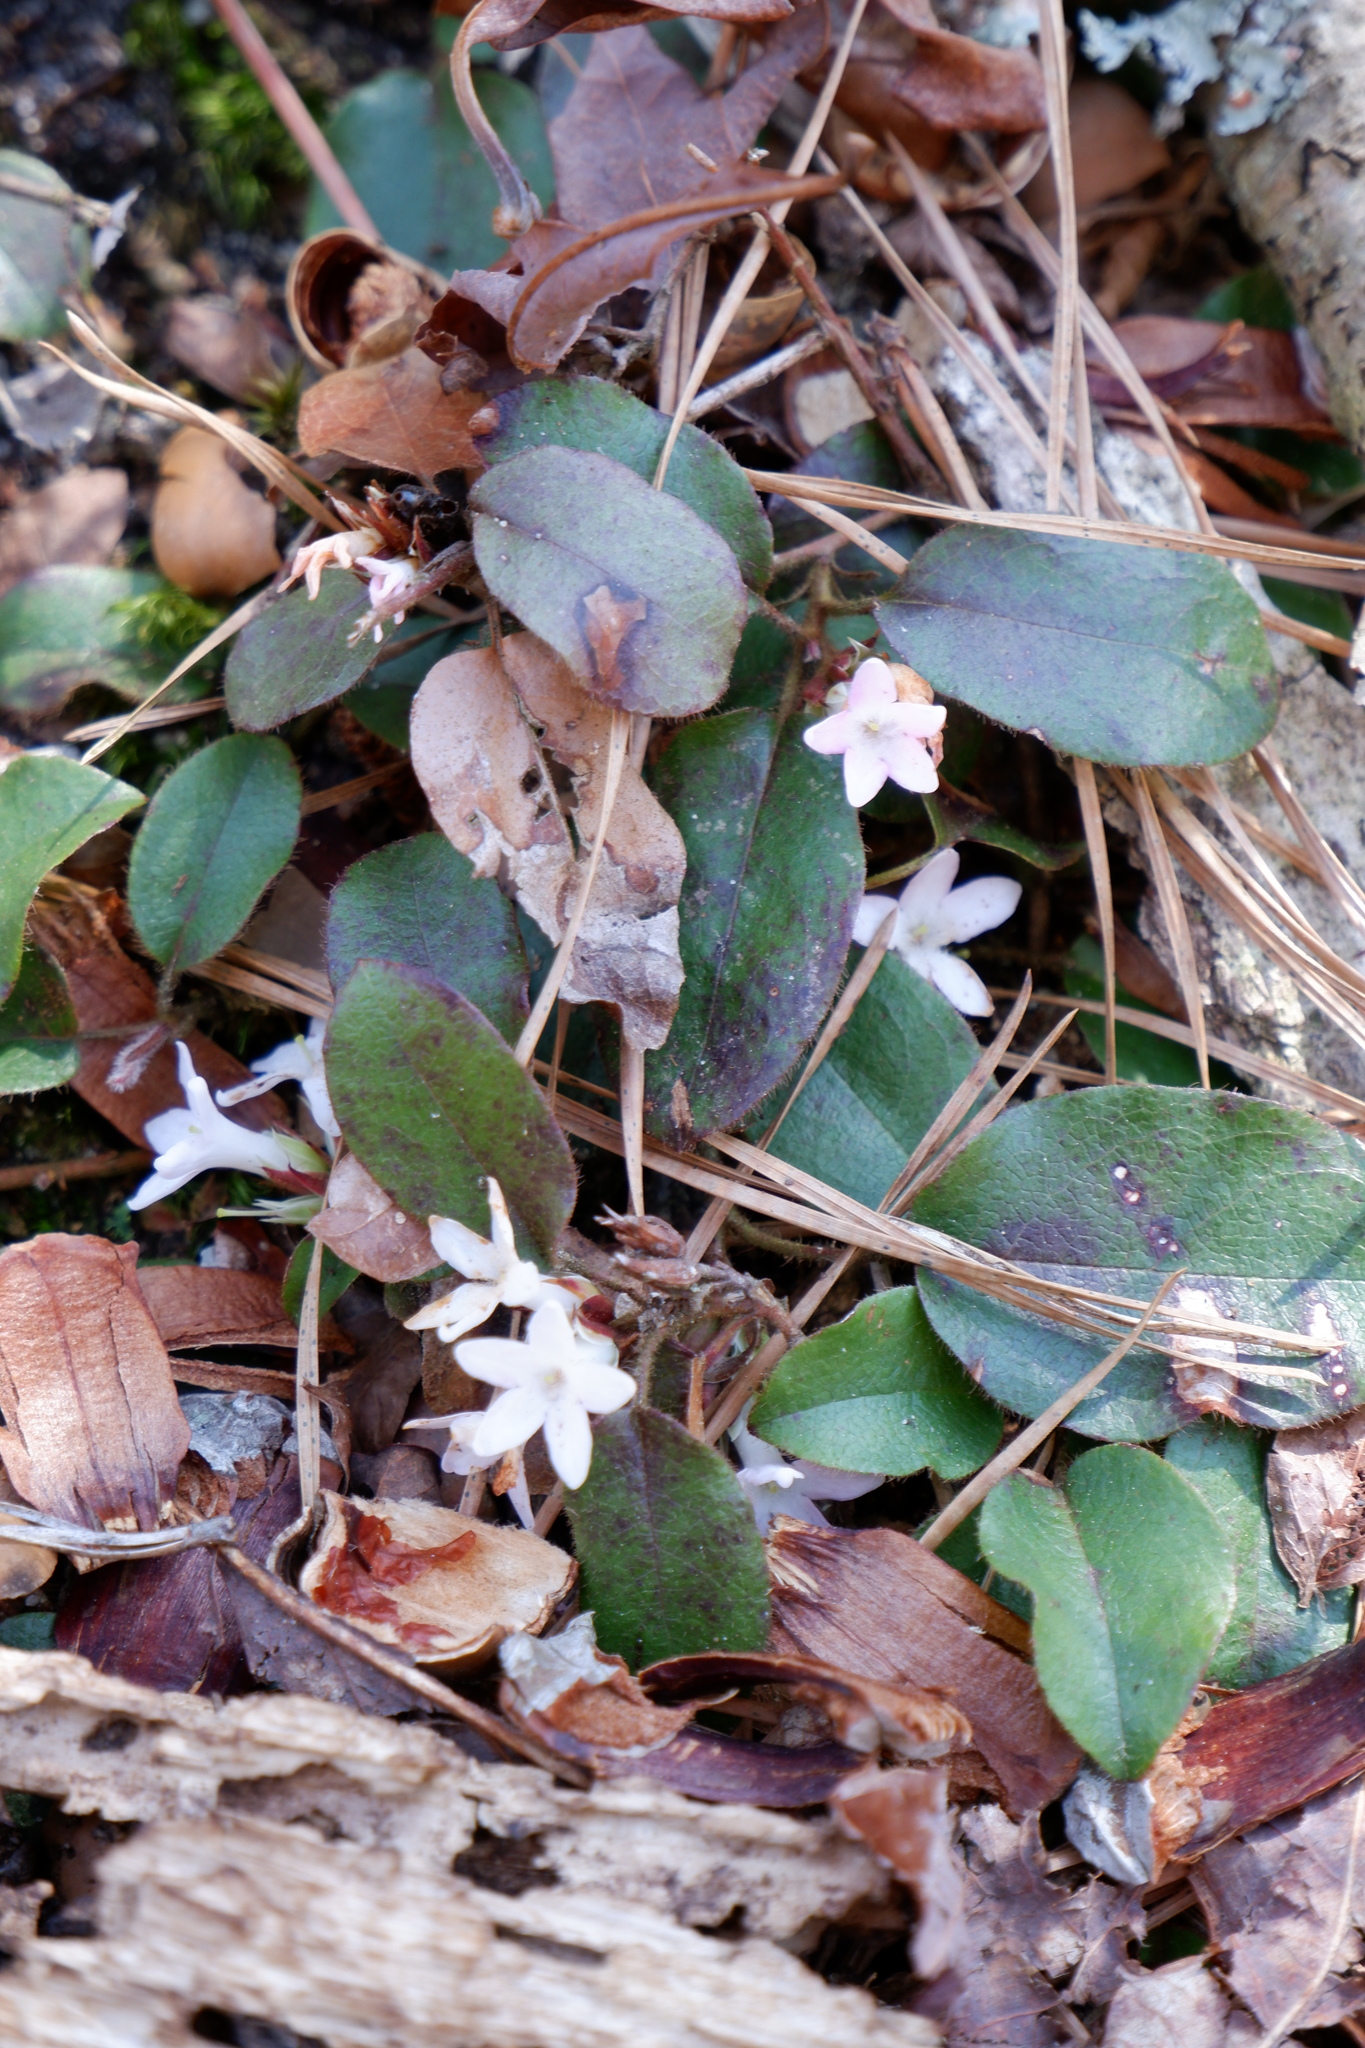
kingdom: Plantae
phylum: Tracheophyta
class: Magnoliopsida
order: Ericales
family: Ericaceae
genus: Epigaea
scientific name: Epigaea repens
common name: Gravelroot
